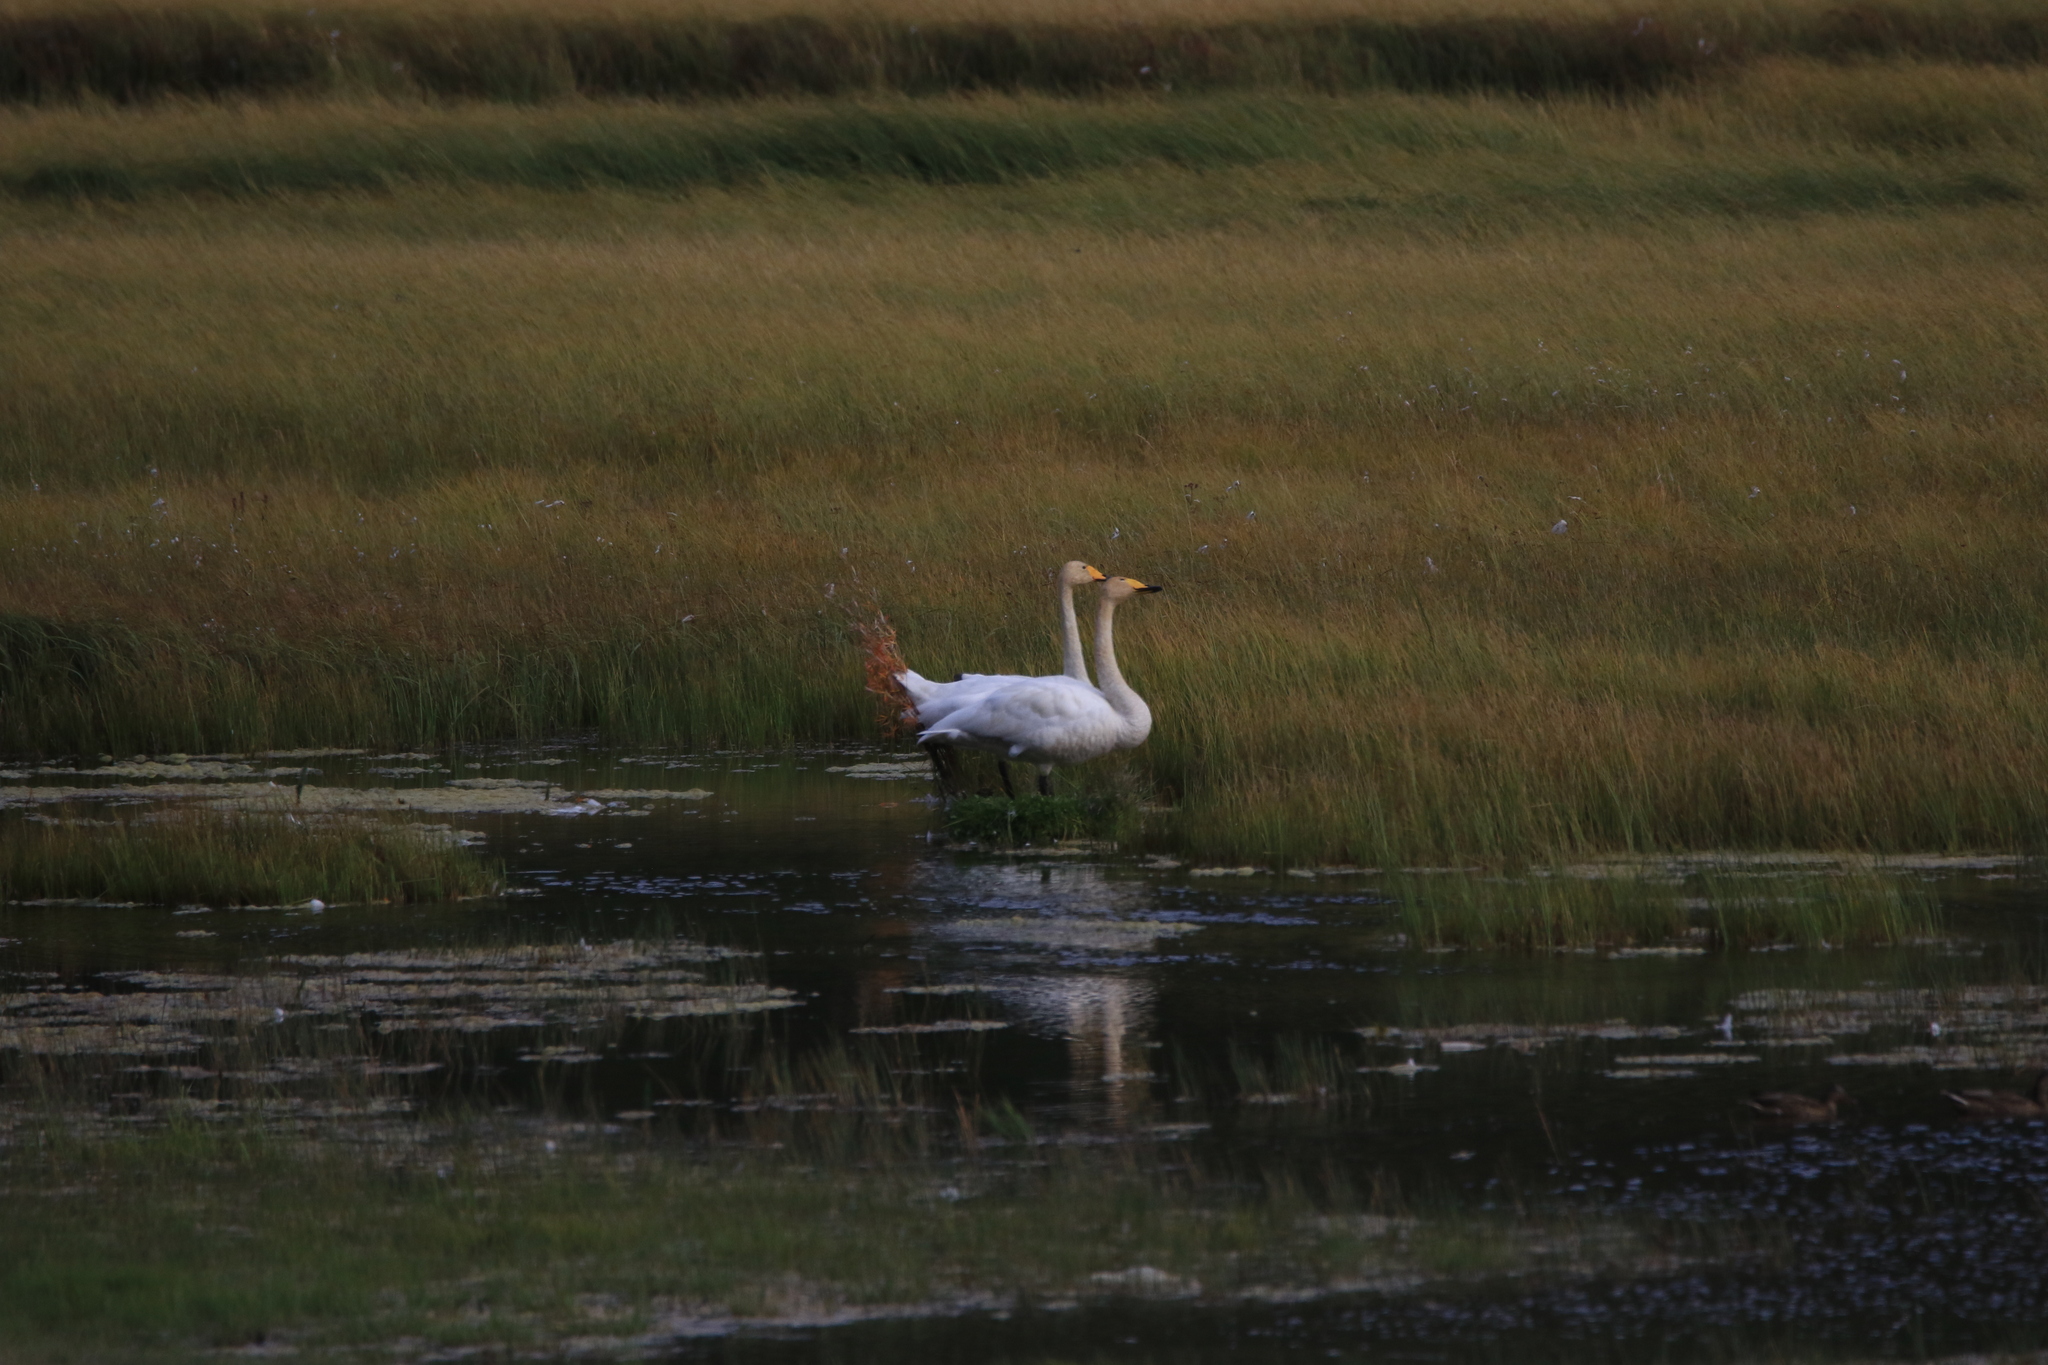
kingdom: Animalia
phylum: Chordata
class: Aves
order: Anseriformes
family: Anatidae
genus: Cygnus
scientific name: Cygnus cygnus
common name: Whooper swan
